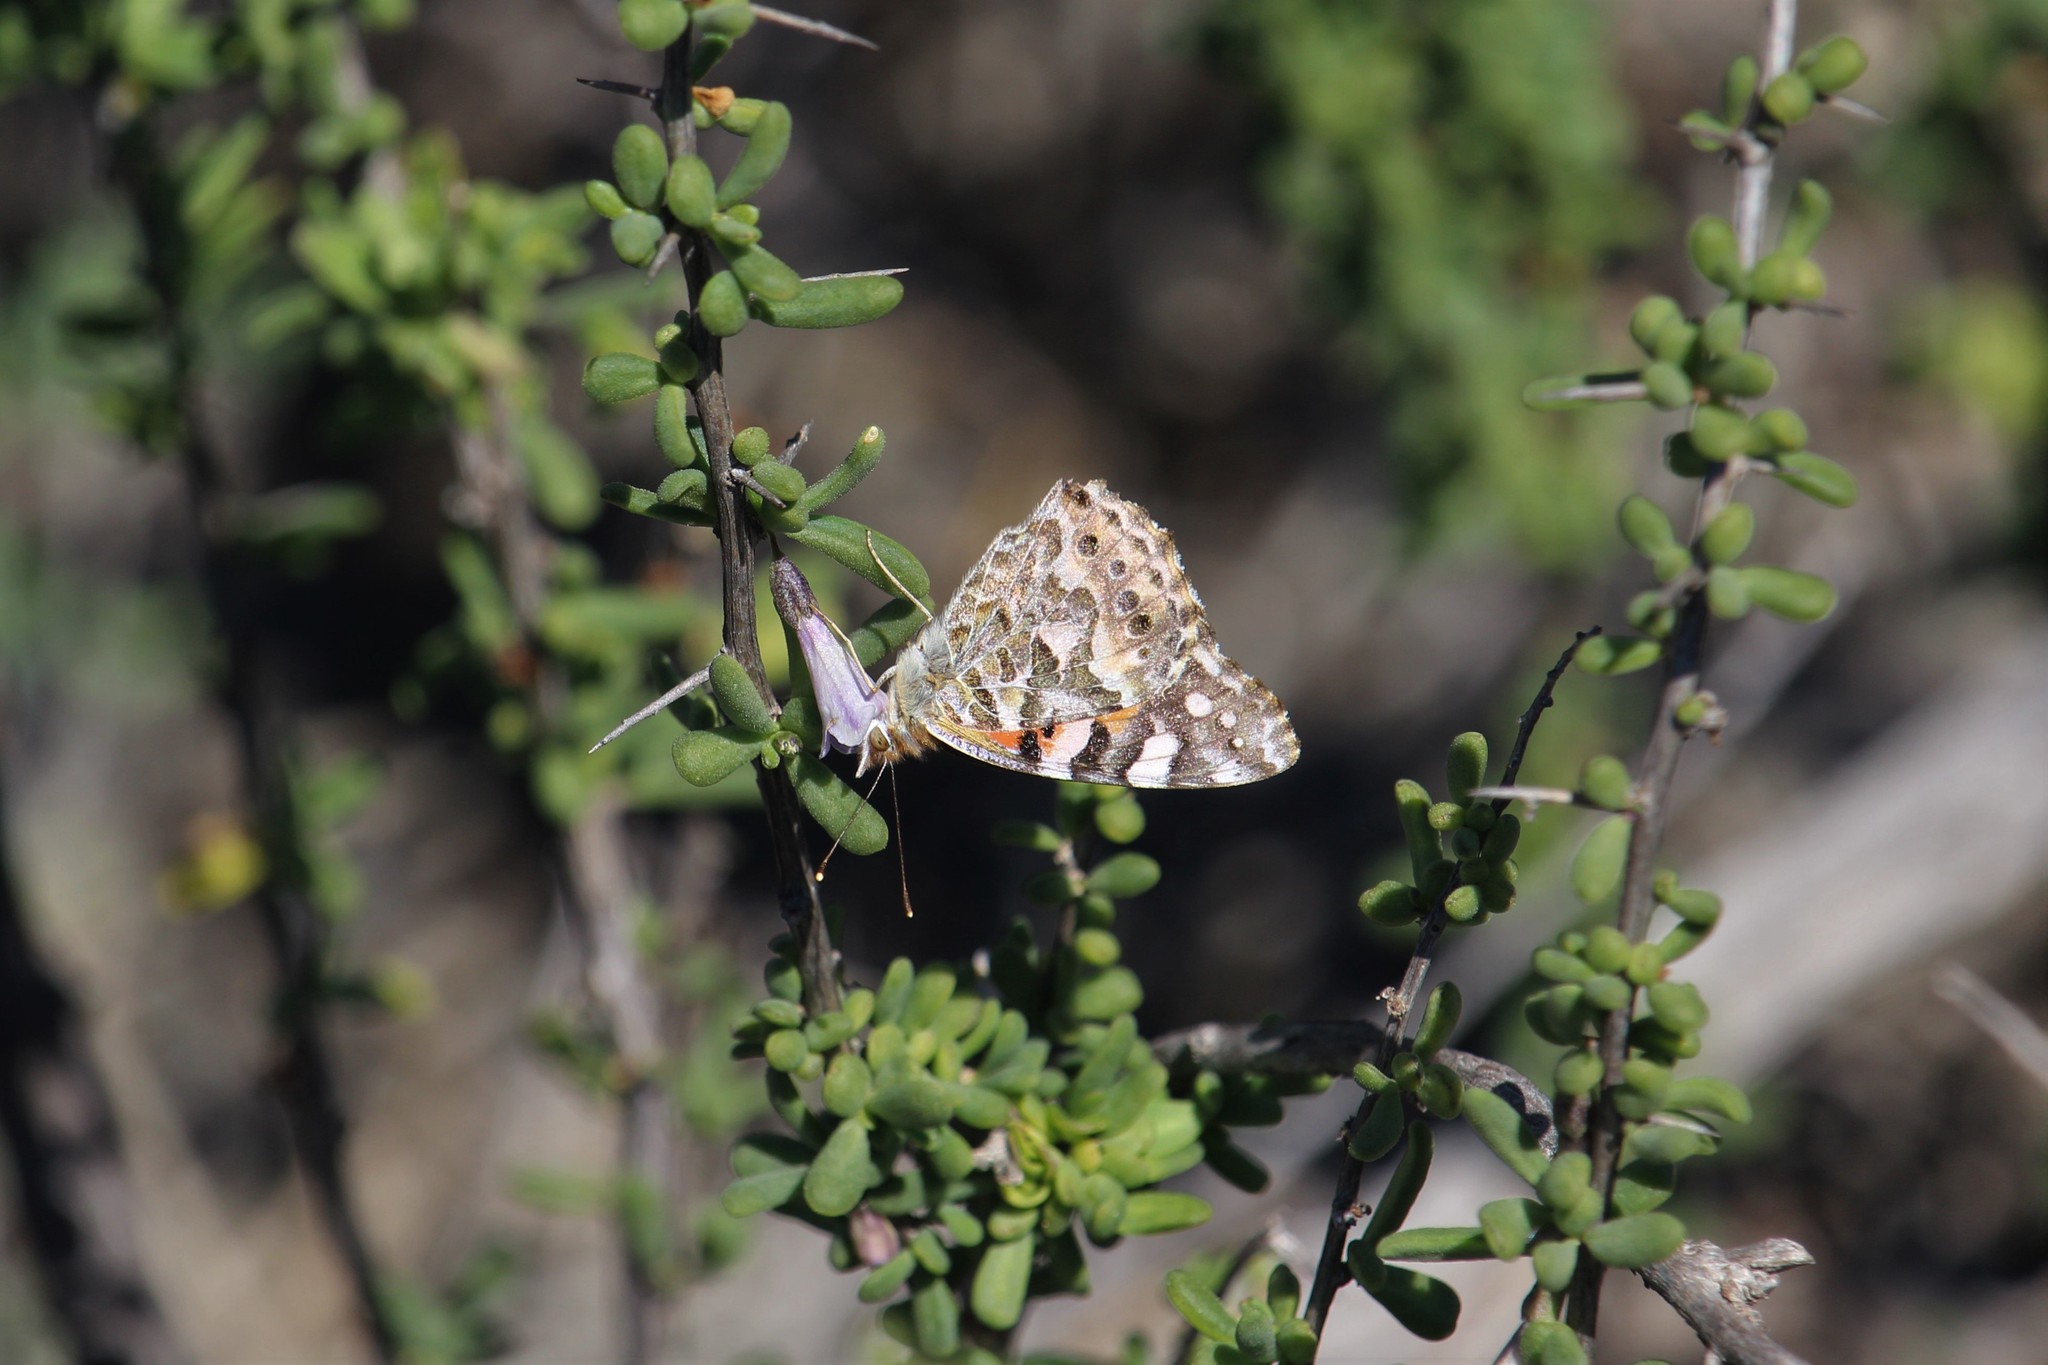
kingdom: Animalia
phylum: Arthropoda
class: Insecta
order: Lepidoptera
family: Nymphalidae
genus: Vanessa
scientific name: Vanessa kershawi
